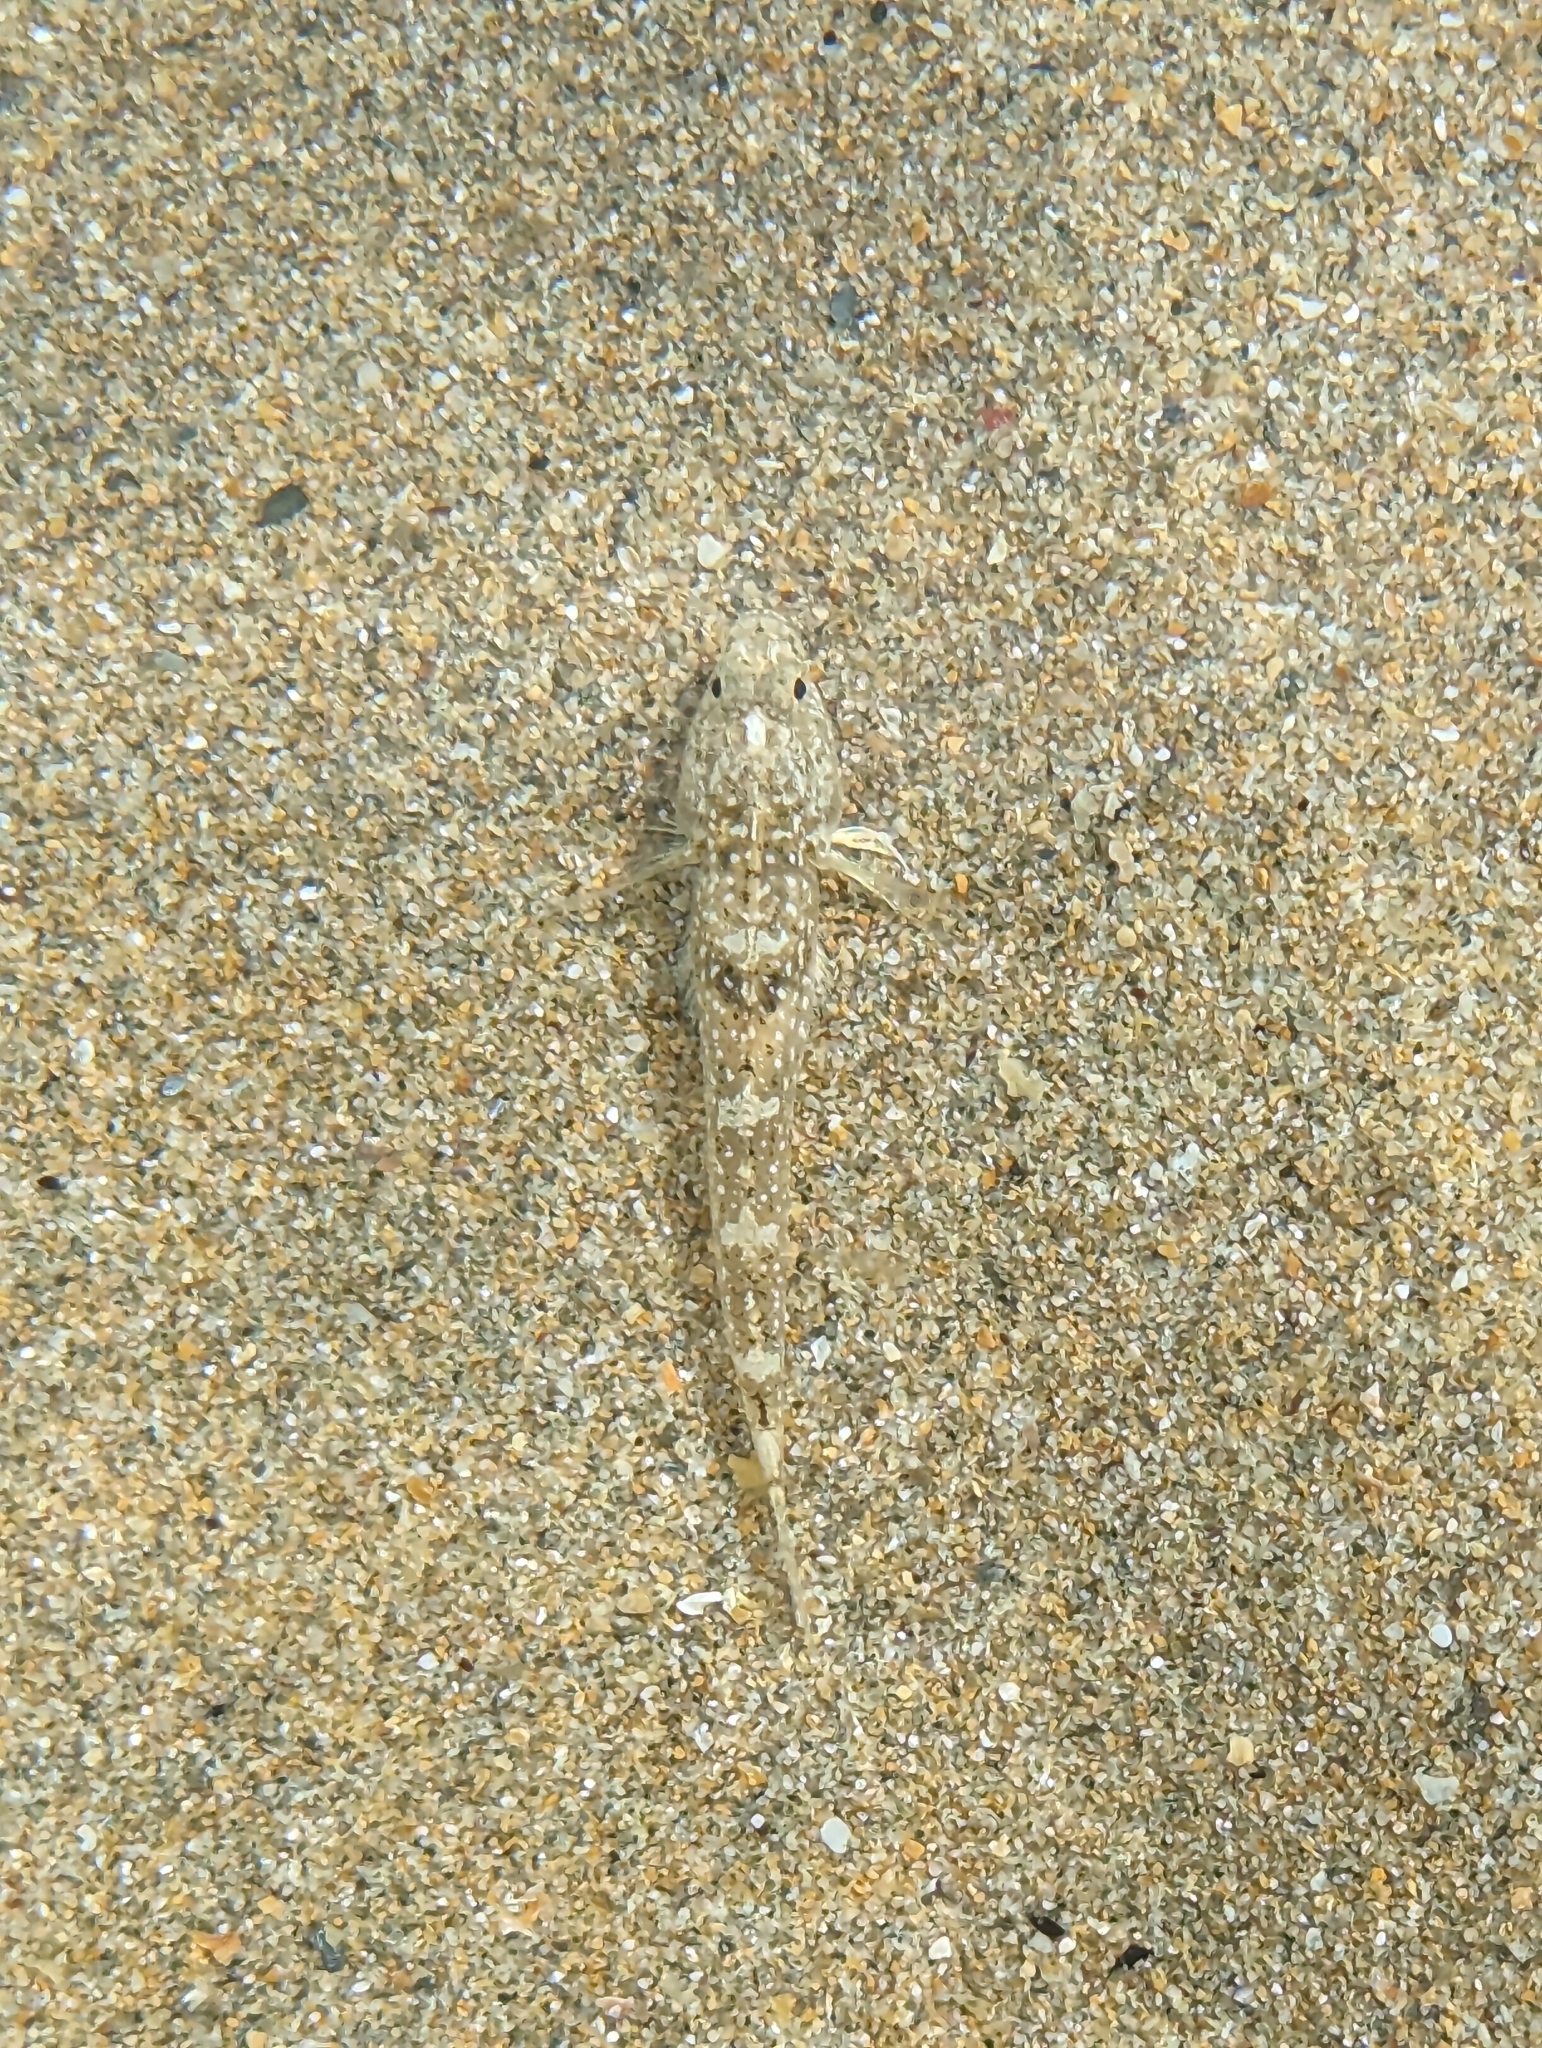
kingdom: Animalia
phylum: Chordata
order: Perciformes
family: Gobiidae
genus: Pomatoschistus
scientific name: Pomatoschistus microps
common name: Common goby
